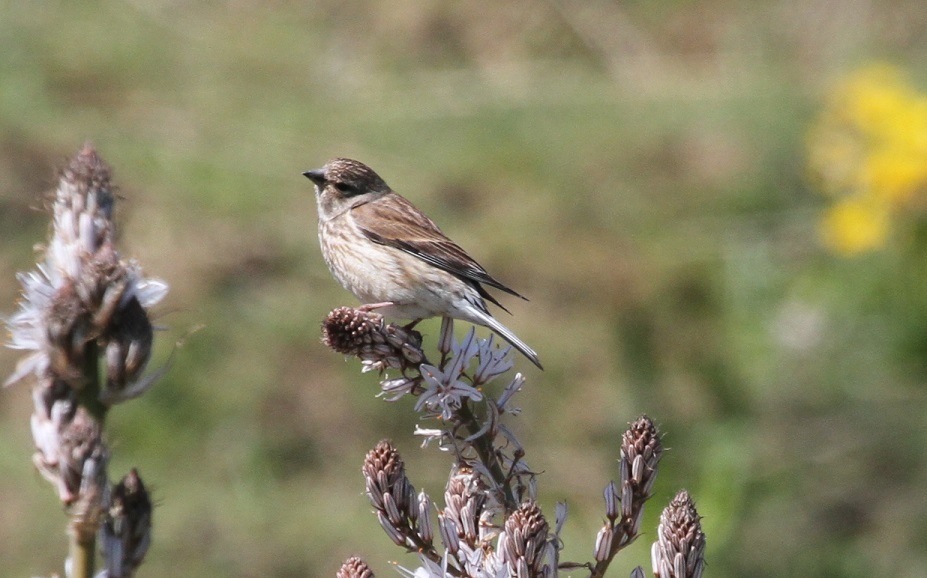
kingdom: Animalia
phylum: Chordata
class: Aves
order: Passeriformes
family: Fringillidae
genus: Linaria
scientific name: Linaria cannabina
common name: Common linnet
